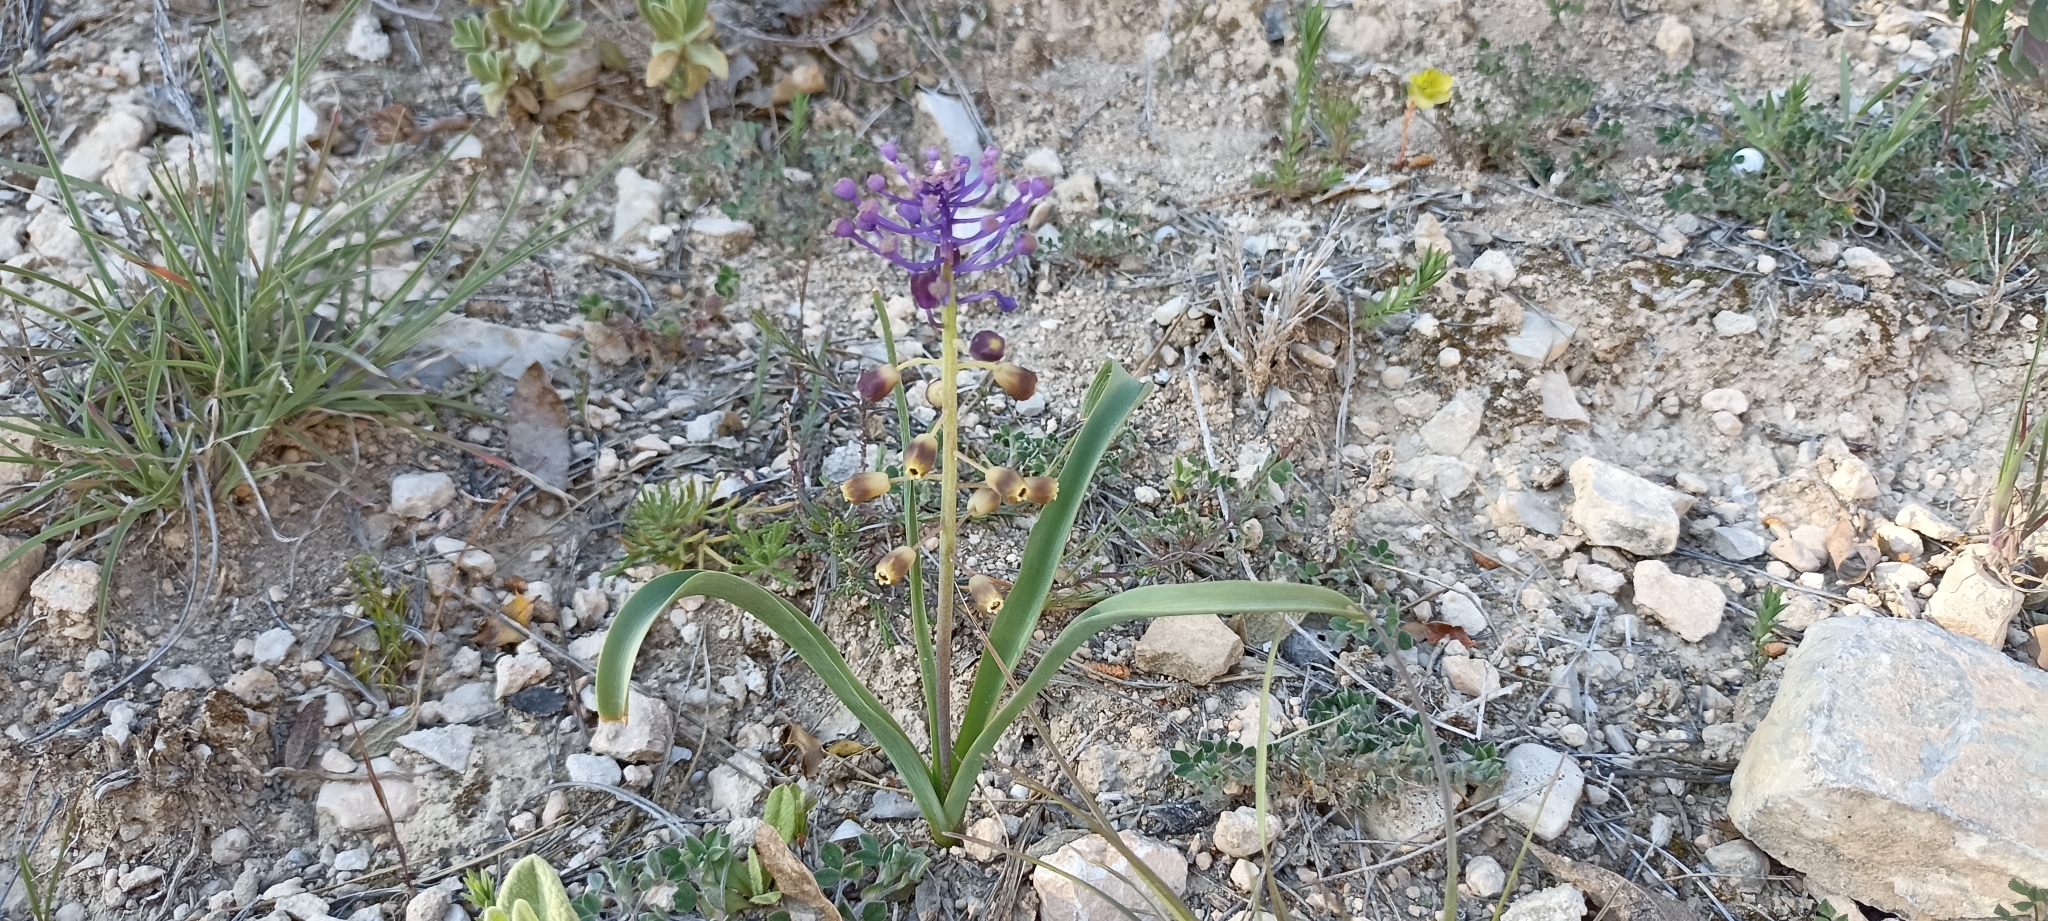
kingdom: Plantae
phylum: Tracheophyta
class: Liliopsida
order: Asparagales
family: Asparagaceae
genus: Muscari
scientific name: Muscari comosum
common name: Tassel hyacinth
